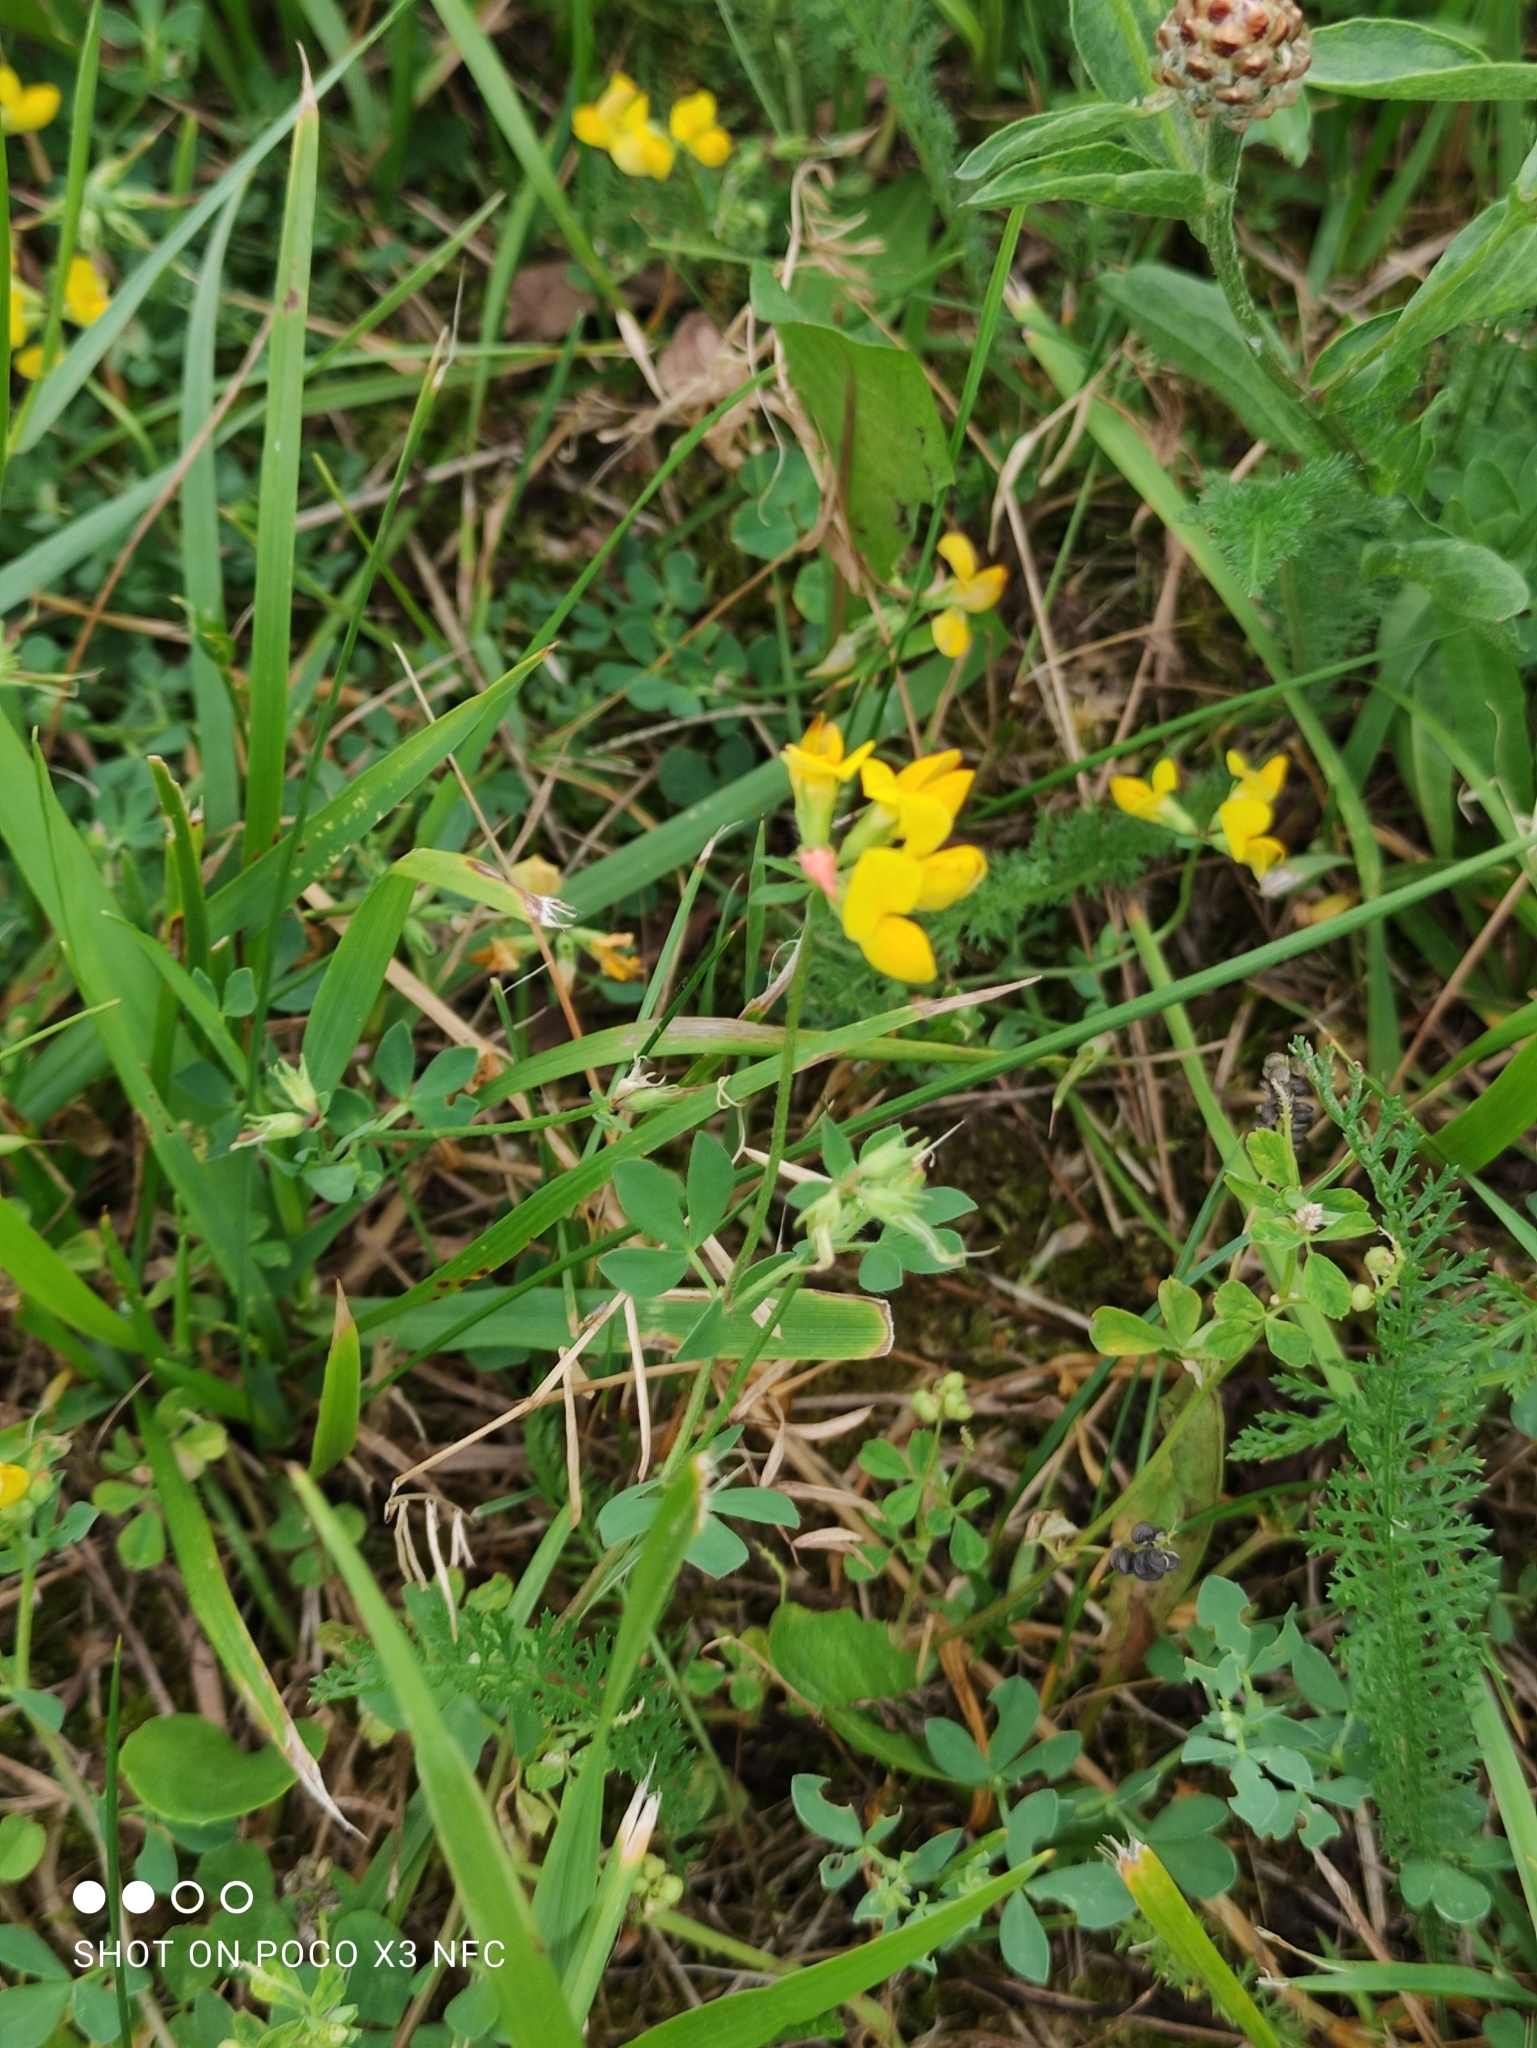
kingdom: Plantae
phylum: Tracheophyta
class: Magnoliopsida
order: Fabales
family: Fabaceae
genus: Lotus
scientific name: Lotus corniculatus
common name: Common bird's-foot-trefoil
